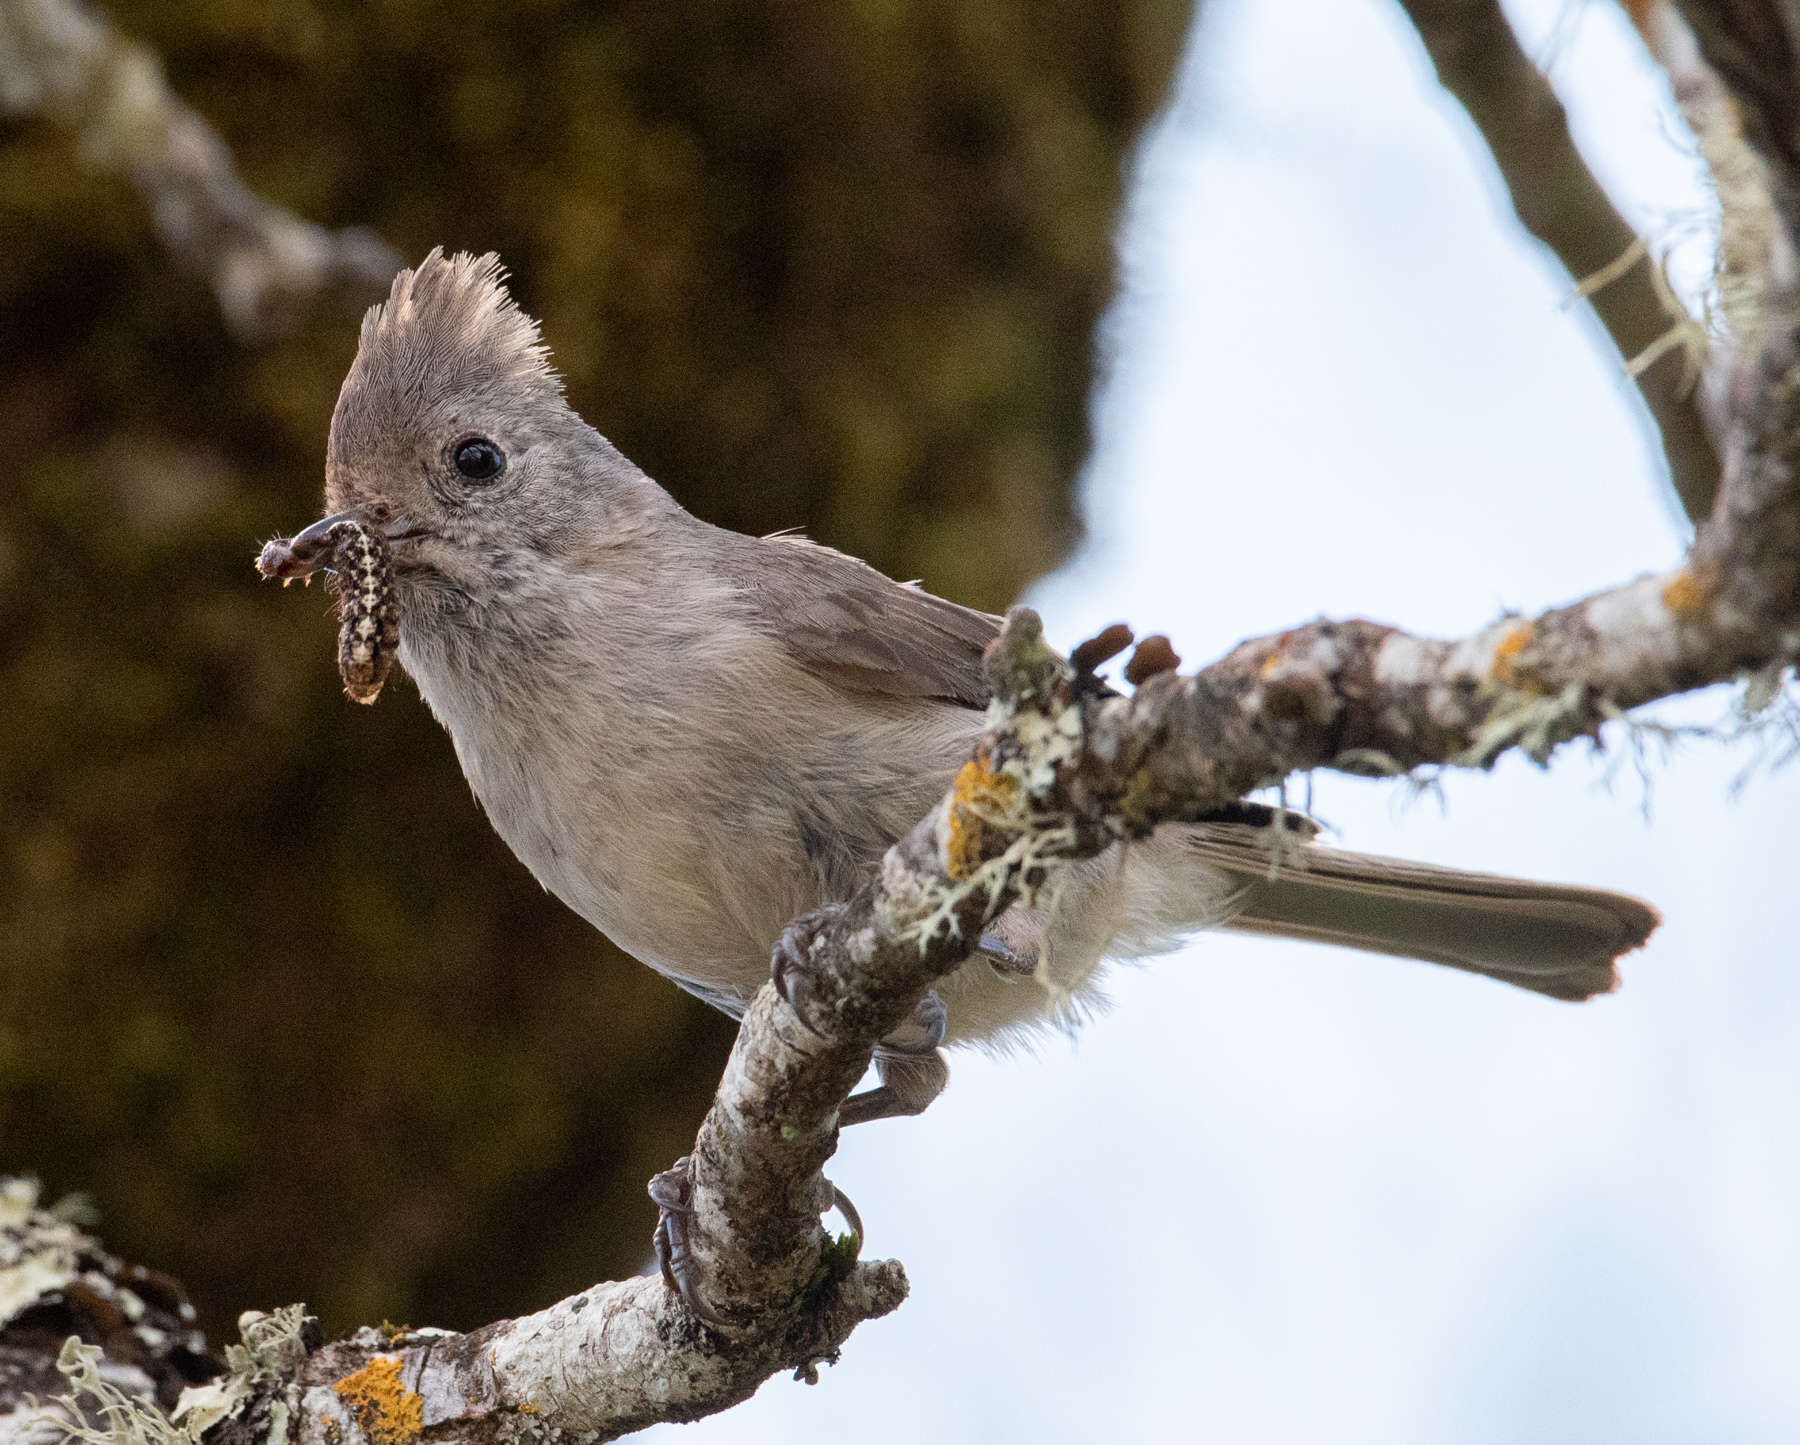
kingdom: Animalia
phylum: Chordata
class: Aves
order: Passeriformes
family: Paridae
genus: Baeolophus
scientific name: Baeolophus inornatus
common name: Oak titmouse
